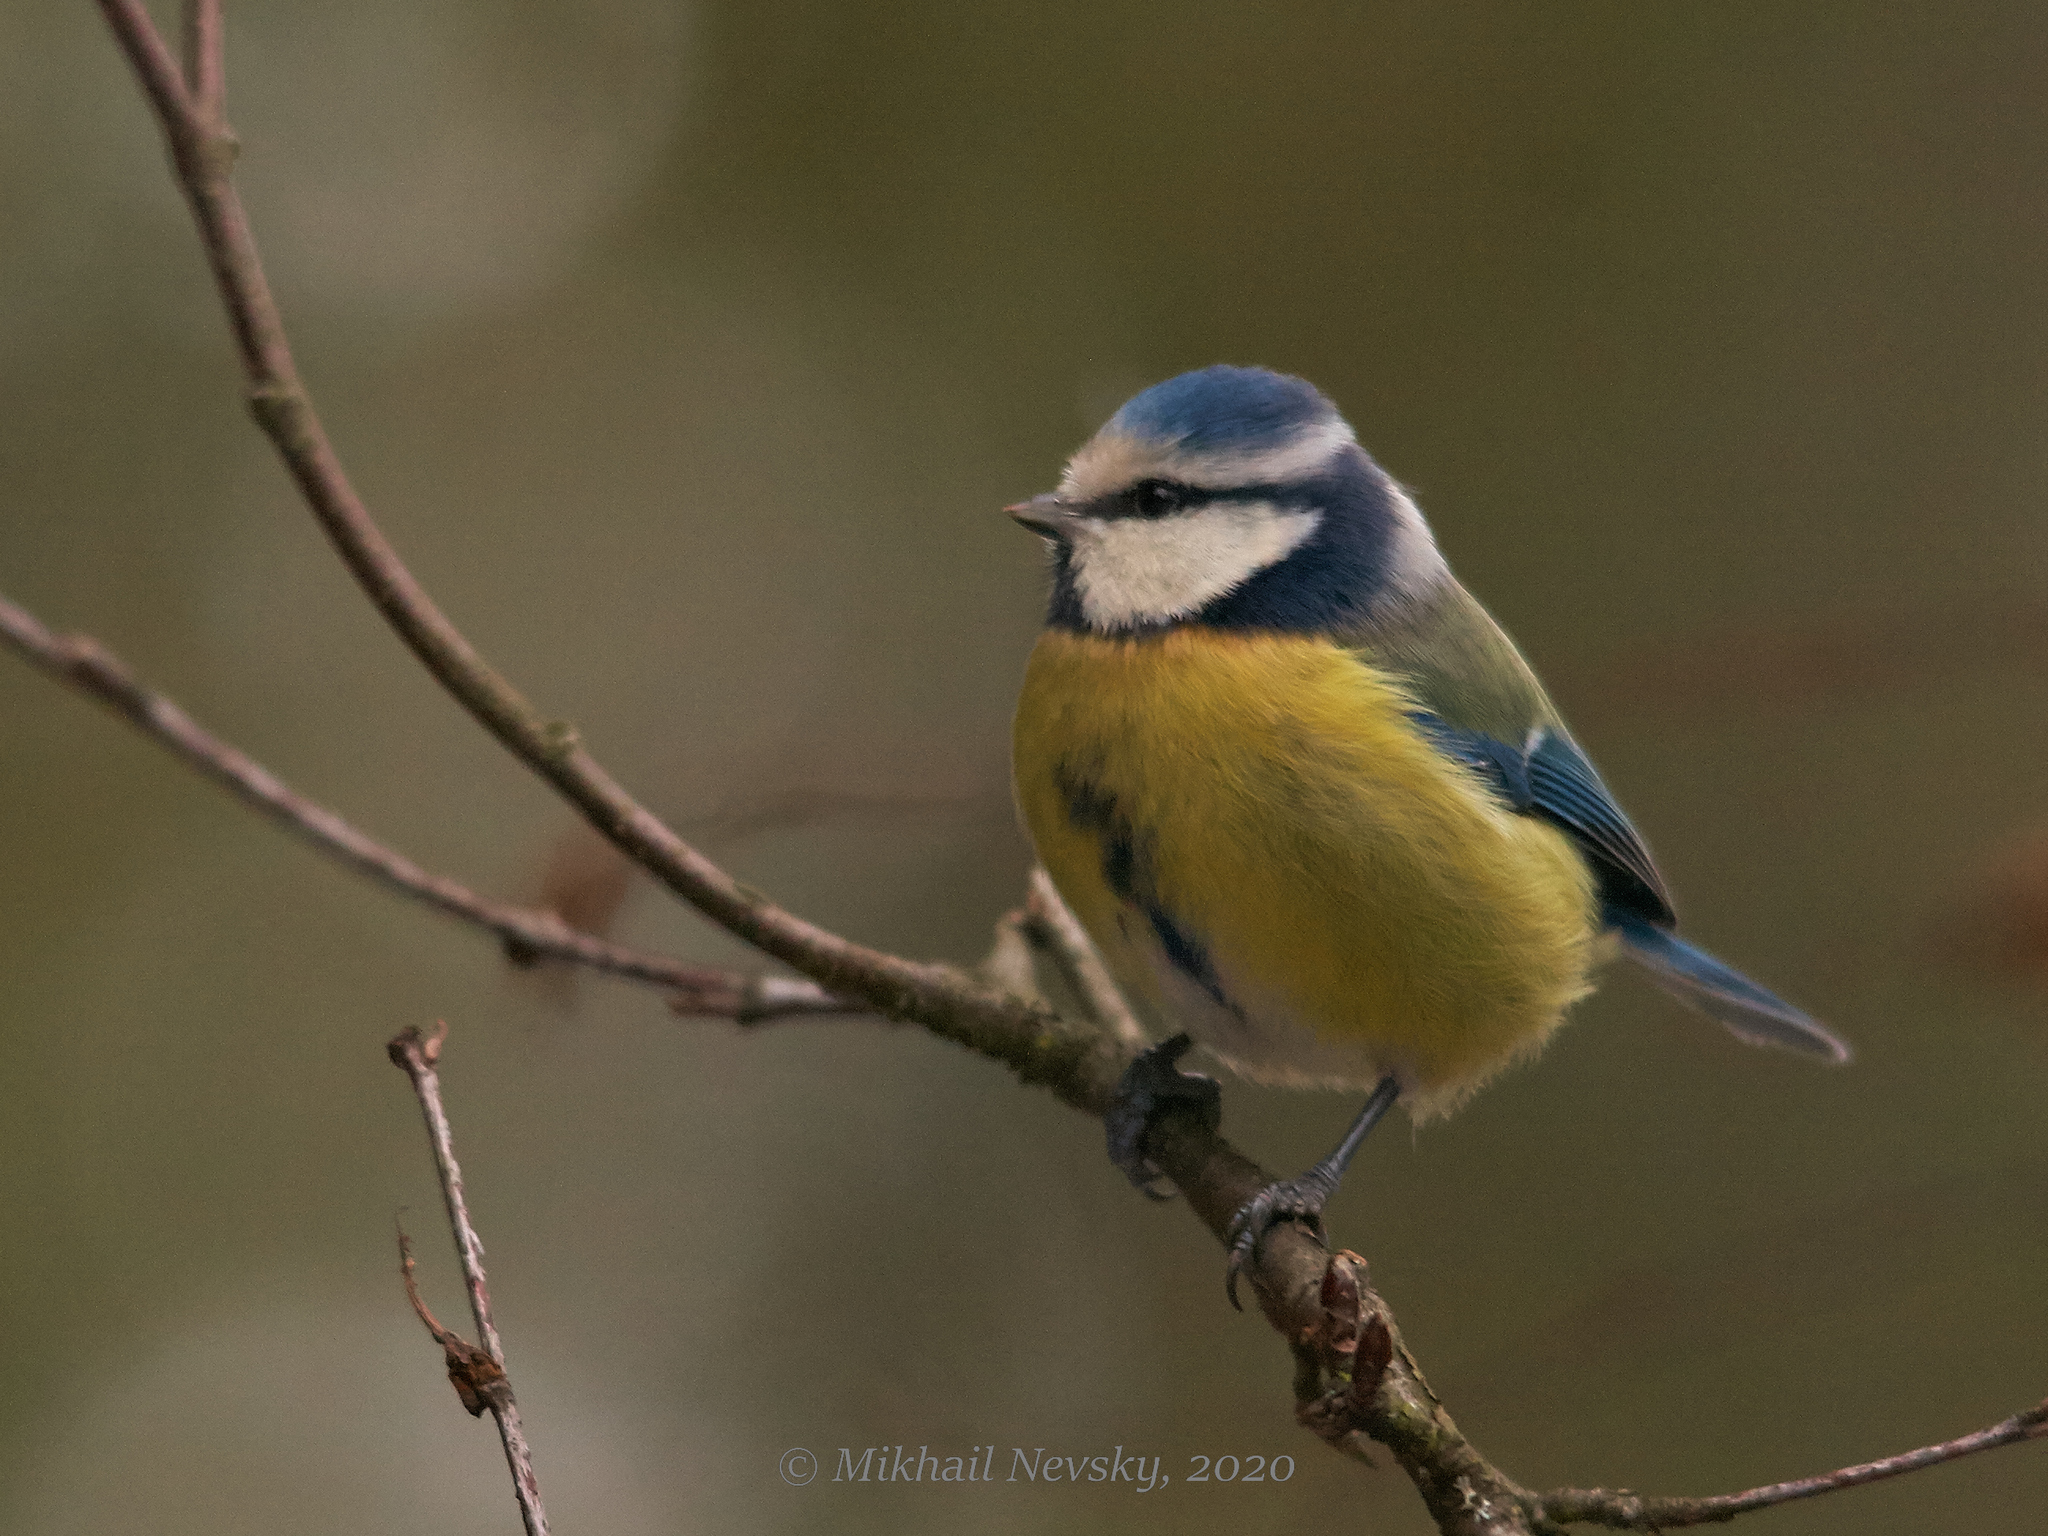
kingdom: Animalia
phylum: Chordata
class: Aves
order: Passeriformes
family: Paridae
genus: Cyanistes
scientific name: Cyanistes caeruleus
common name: Eurasian blue tit
